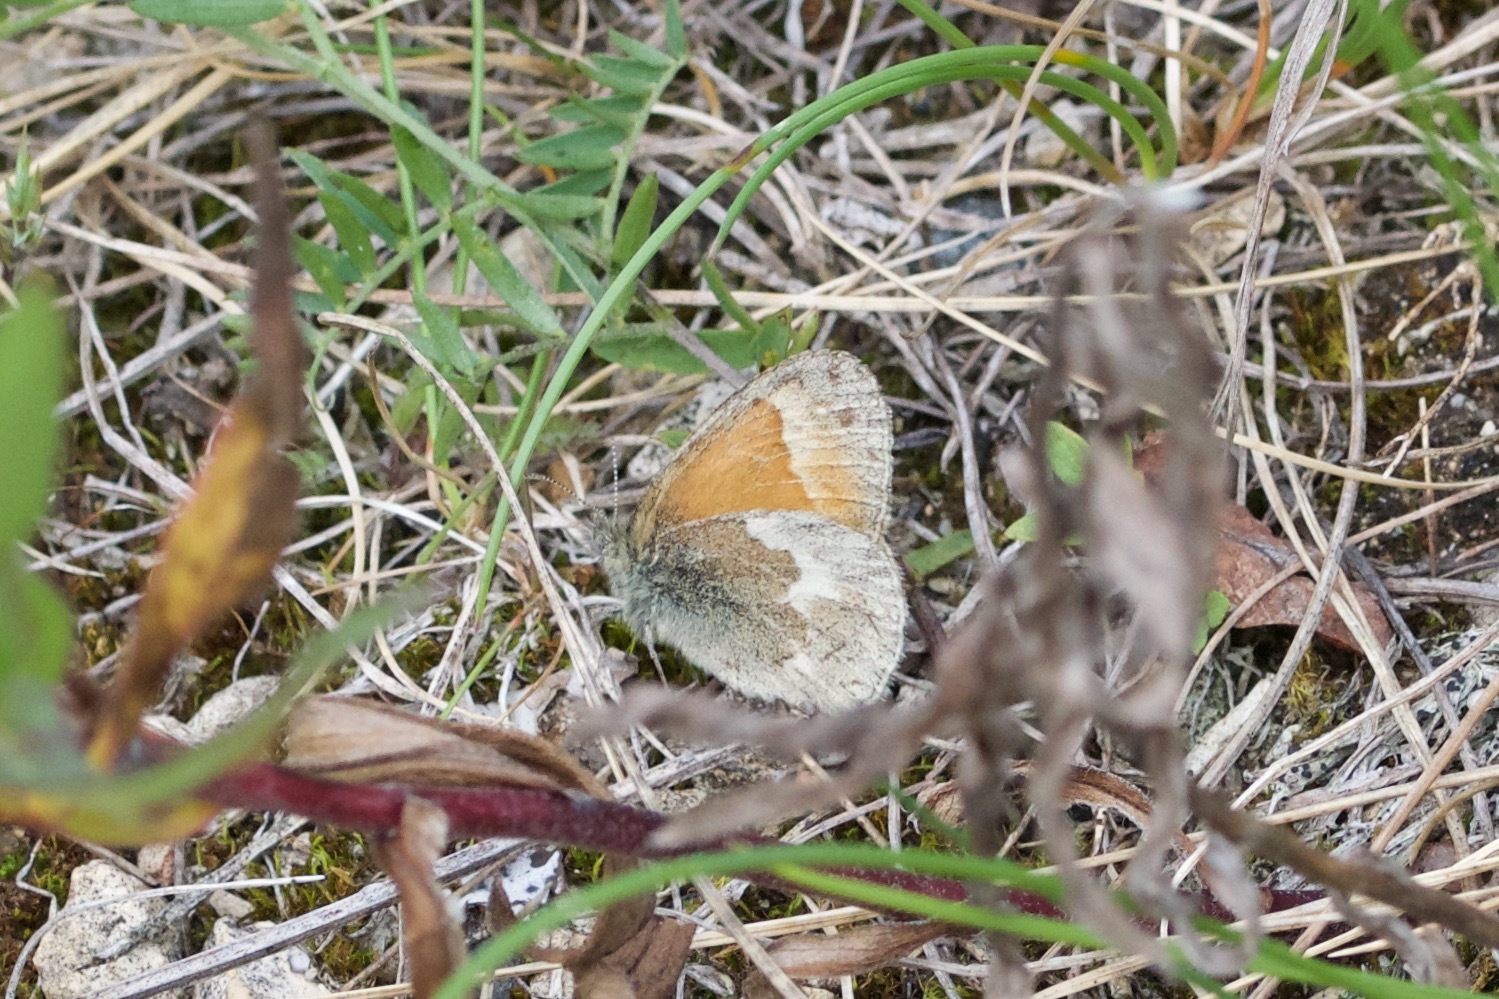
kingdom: Animalia
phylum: Arthropoda
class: Insecta
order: Lepidoptera
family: Nymphalidae
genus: Coenonympha
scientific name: Coenonympha california
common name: Common ringlet
